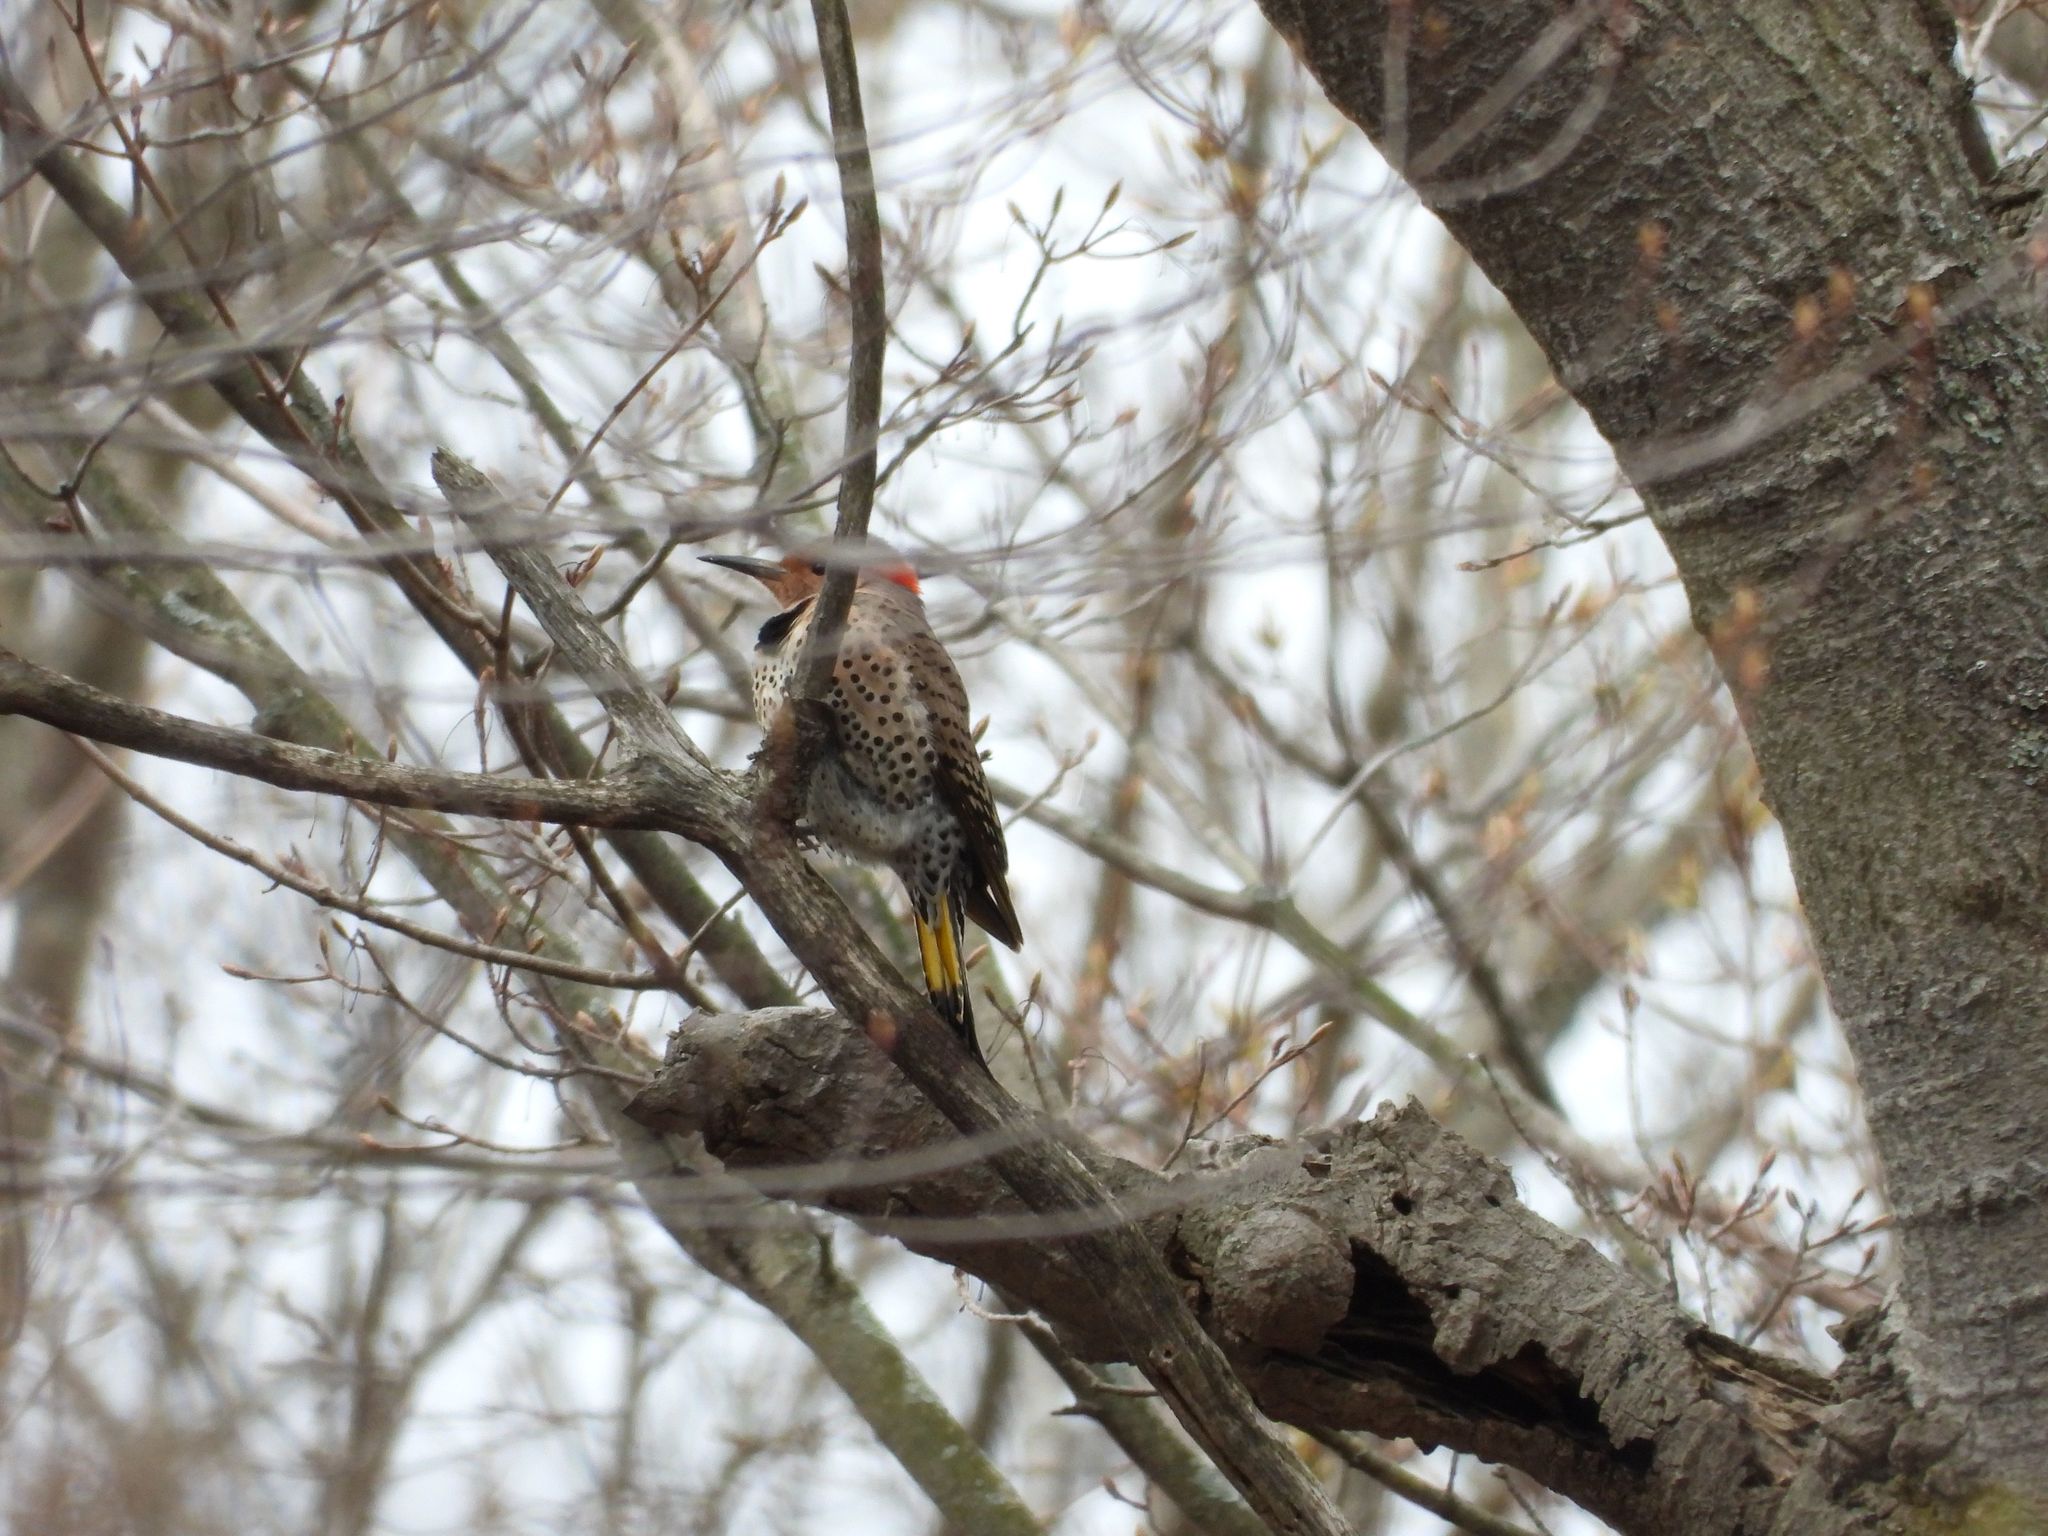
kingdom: Animalia
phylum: Chordata
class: Aves
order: Piciformes
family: Picidae
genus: Colaptes
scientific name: Colaptes auratus
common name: Northern flicker
